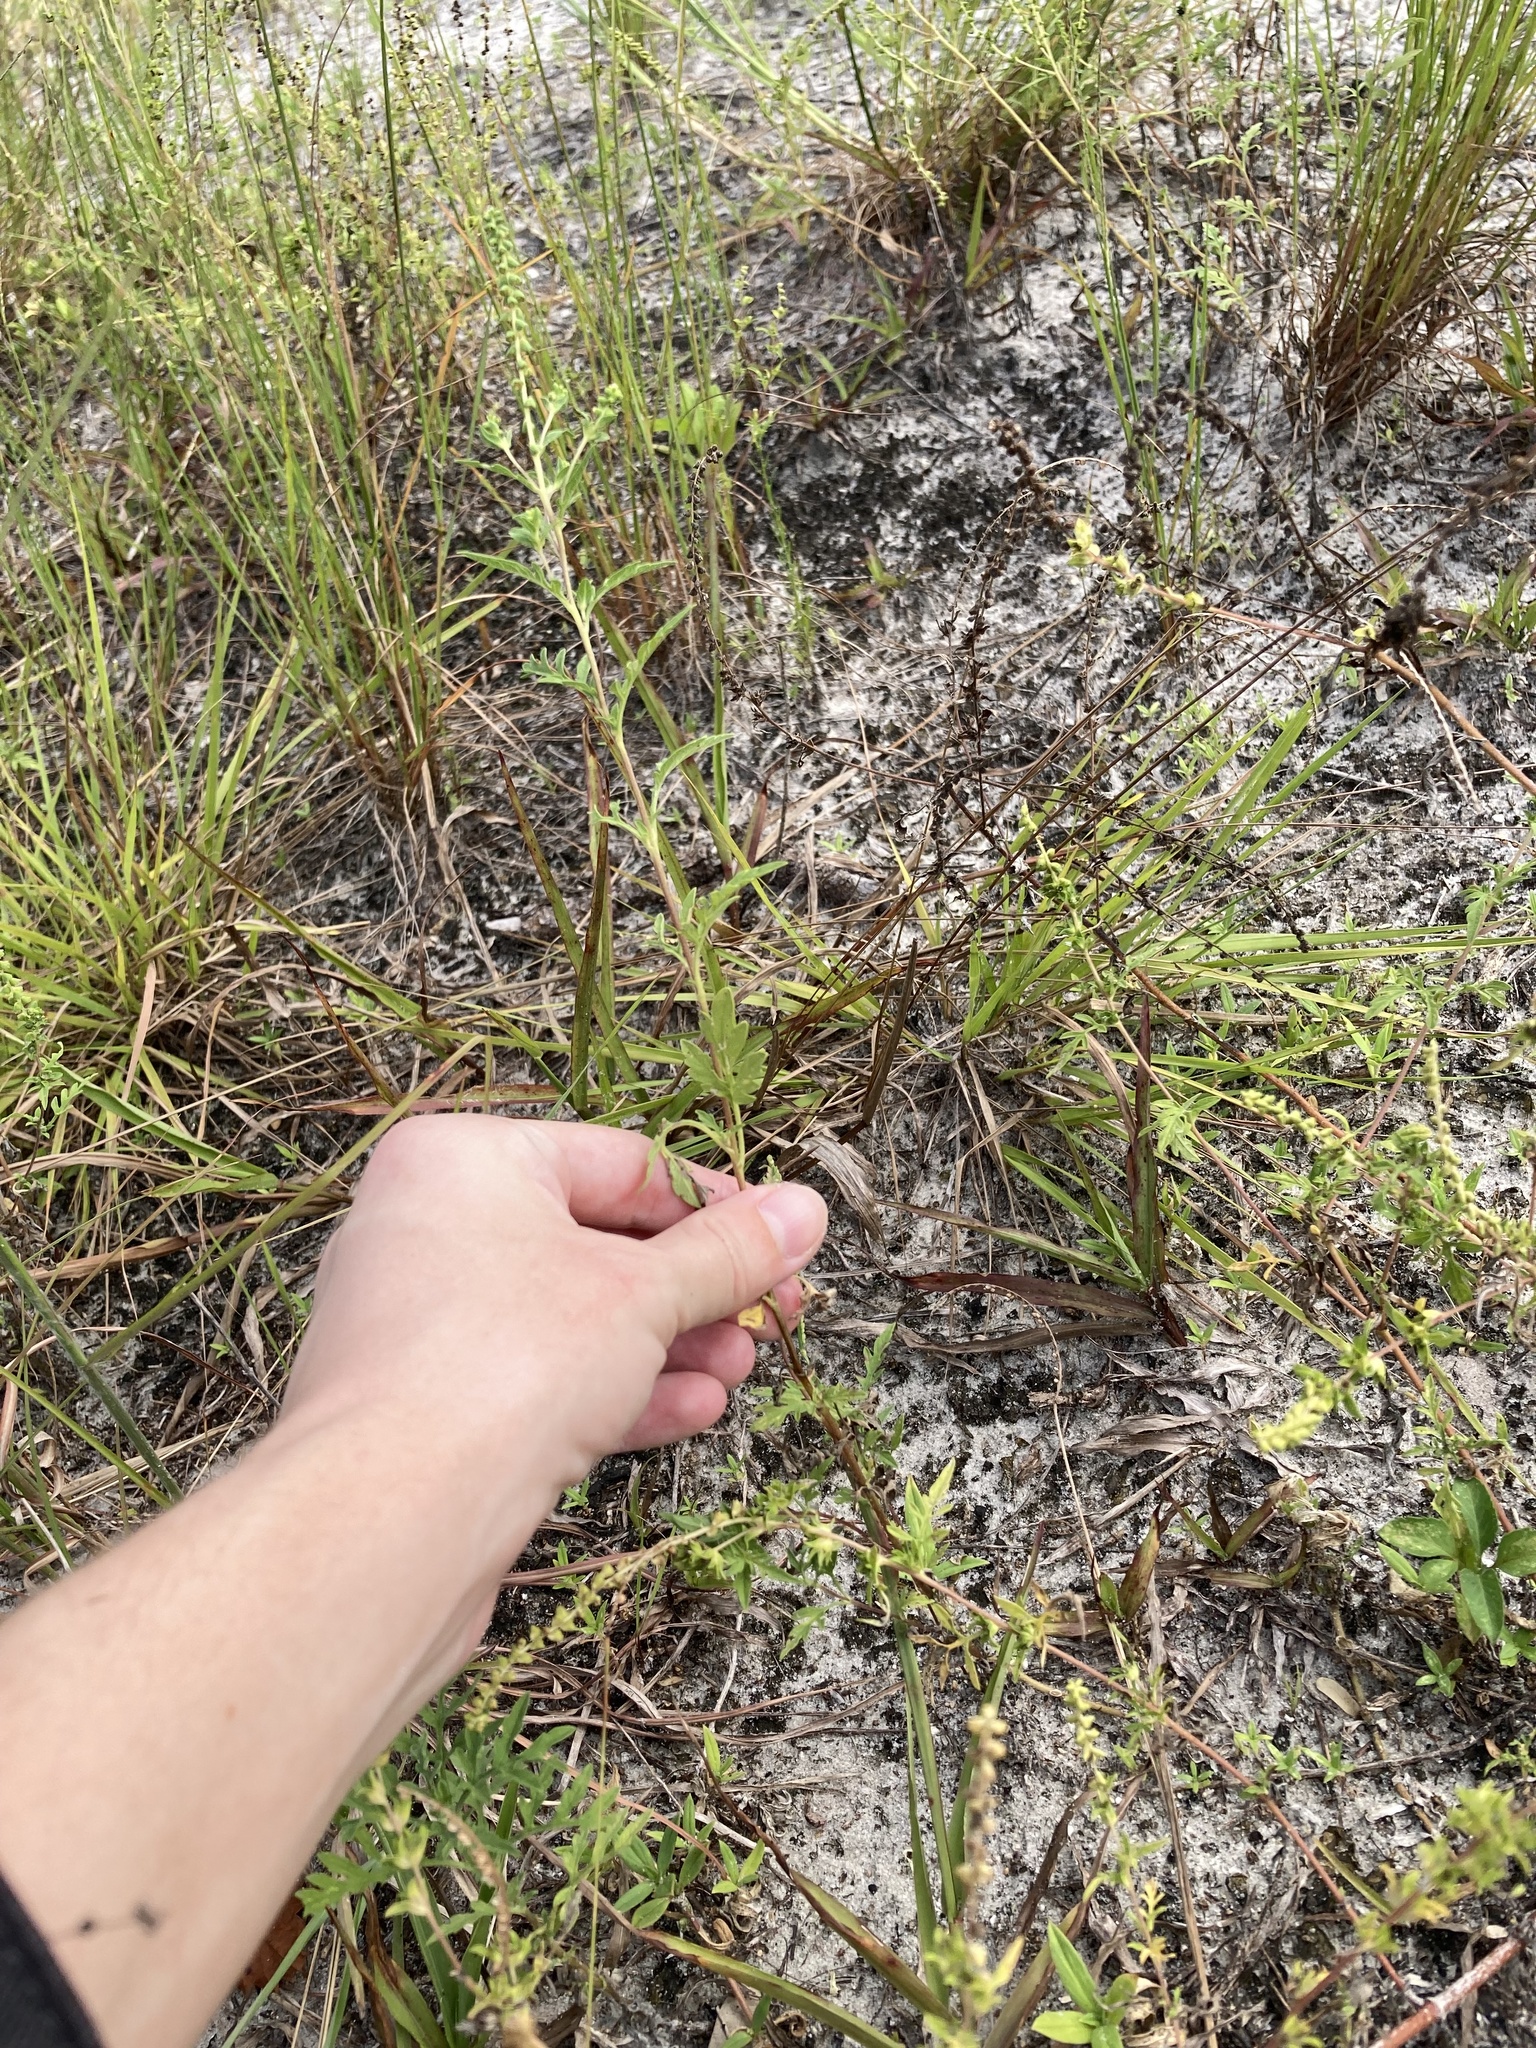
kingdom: Plantae
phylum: Tracheophyta
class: Magnoliopsida
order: Asterales
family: Asteraceae
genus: Ambrosia
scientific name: Ambrosia artemisiifolia
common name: Annual ragweed
